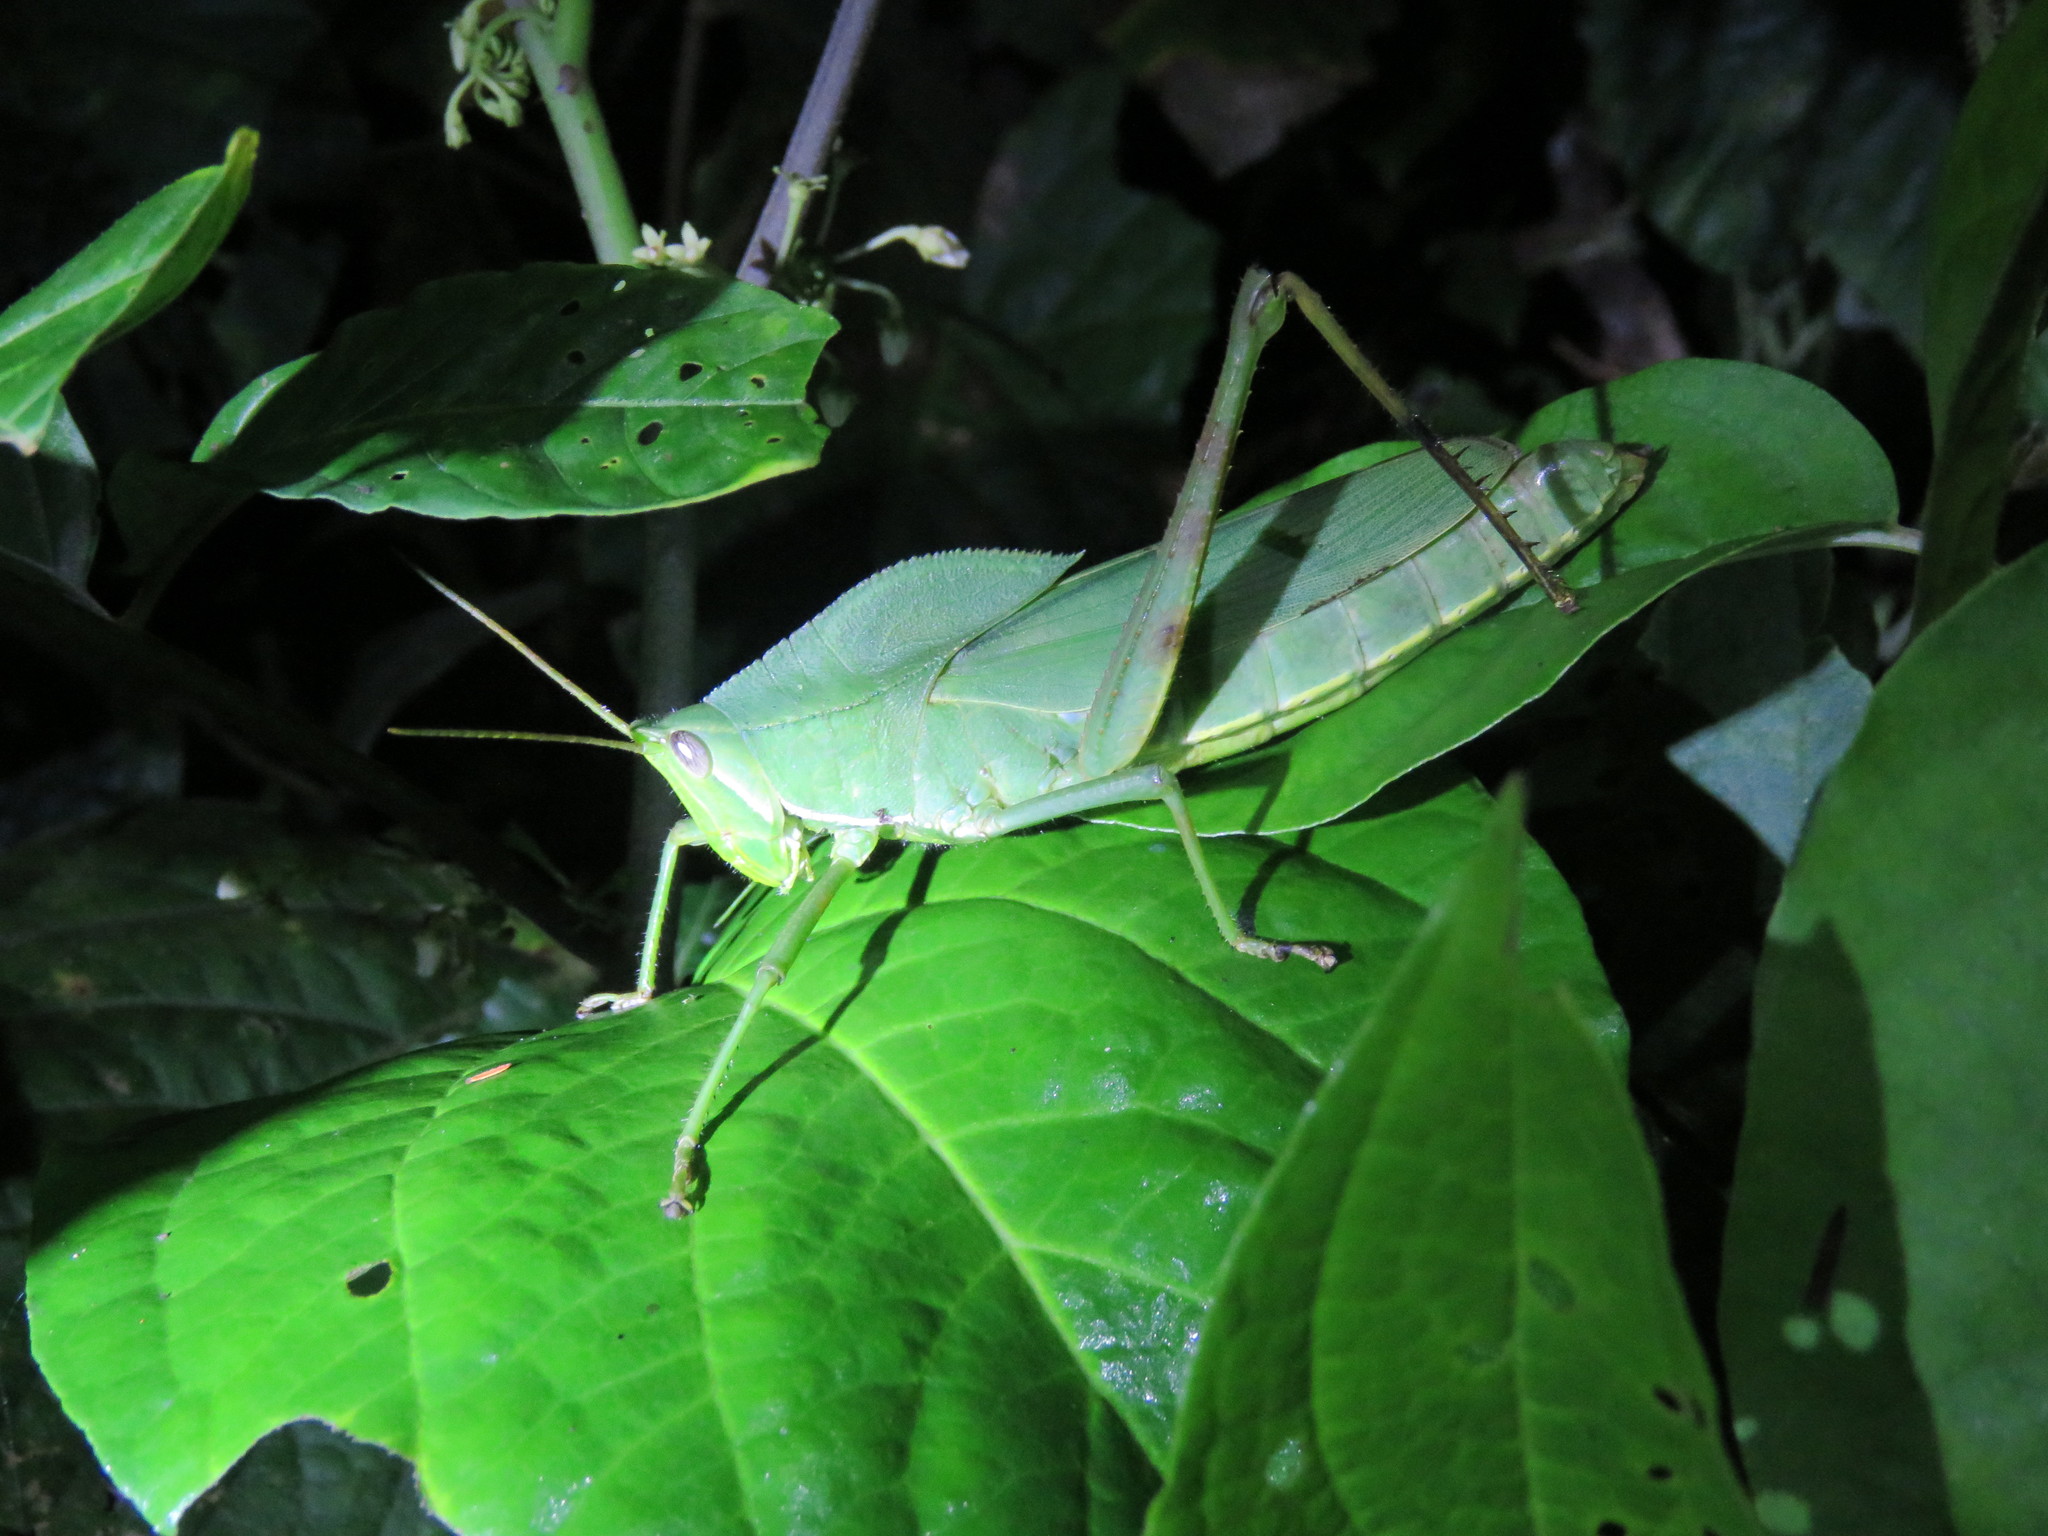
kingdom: Animalia
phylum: Arthropoda
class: Insecta
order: Orthoptera
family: Romaleidae
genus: Prionolopha
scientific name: Prionolopha serrata
